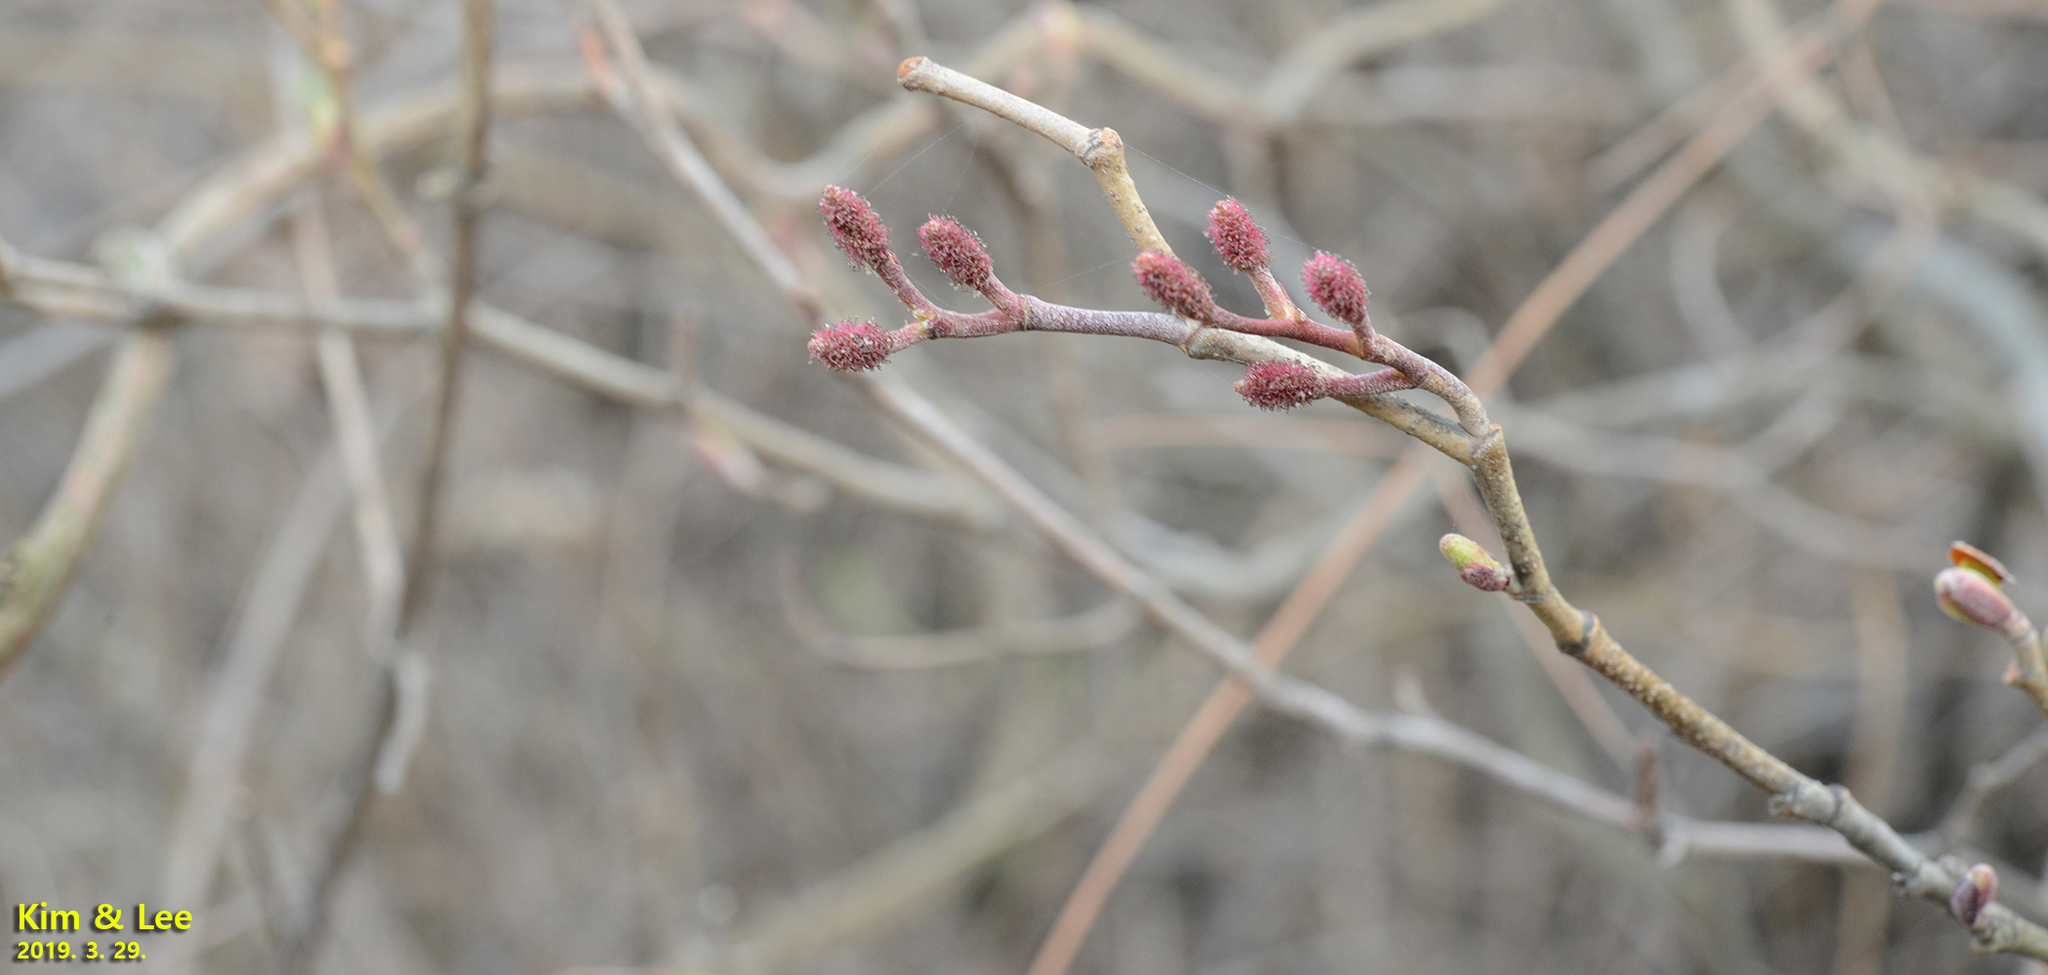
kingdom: Plantae
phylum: Tracheophyta
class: Magnoliopsida
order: Fagales
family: Betulaceae
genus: Alnus
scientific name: Alnus hirsuta
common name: Manchurian alder
